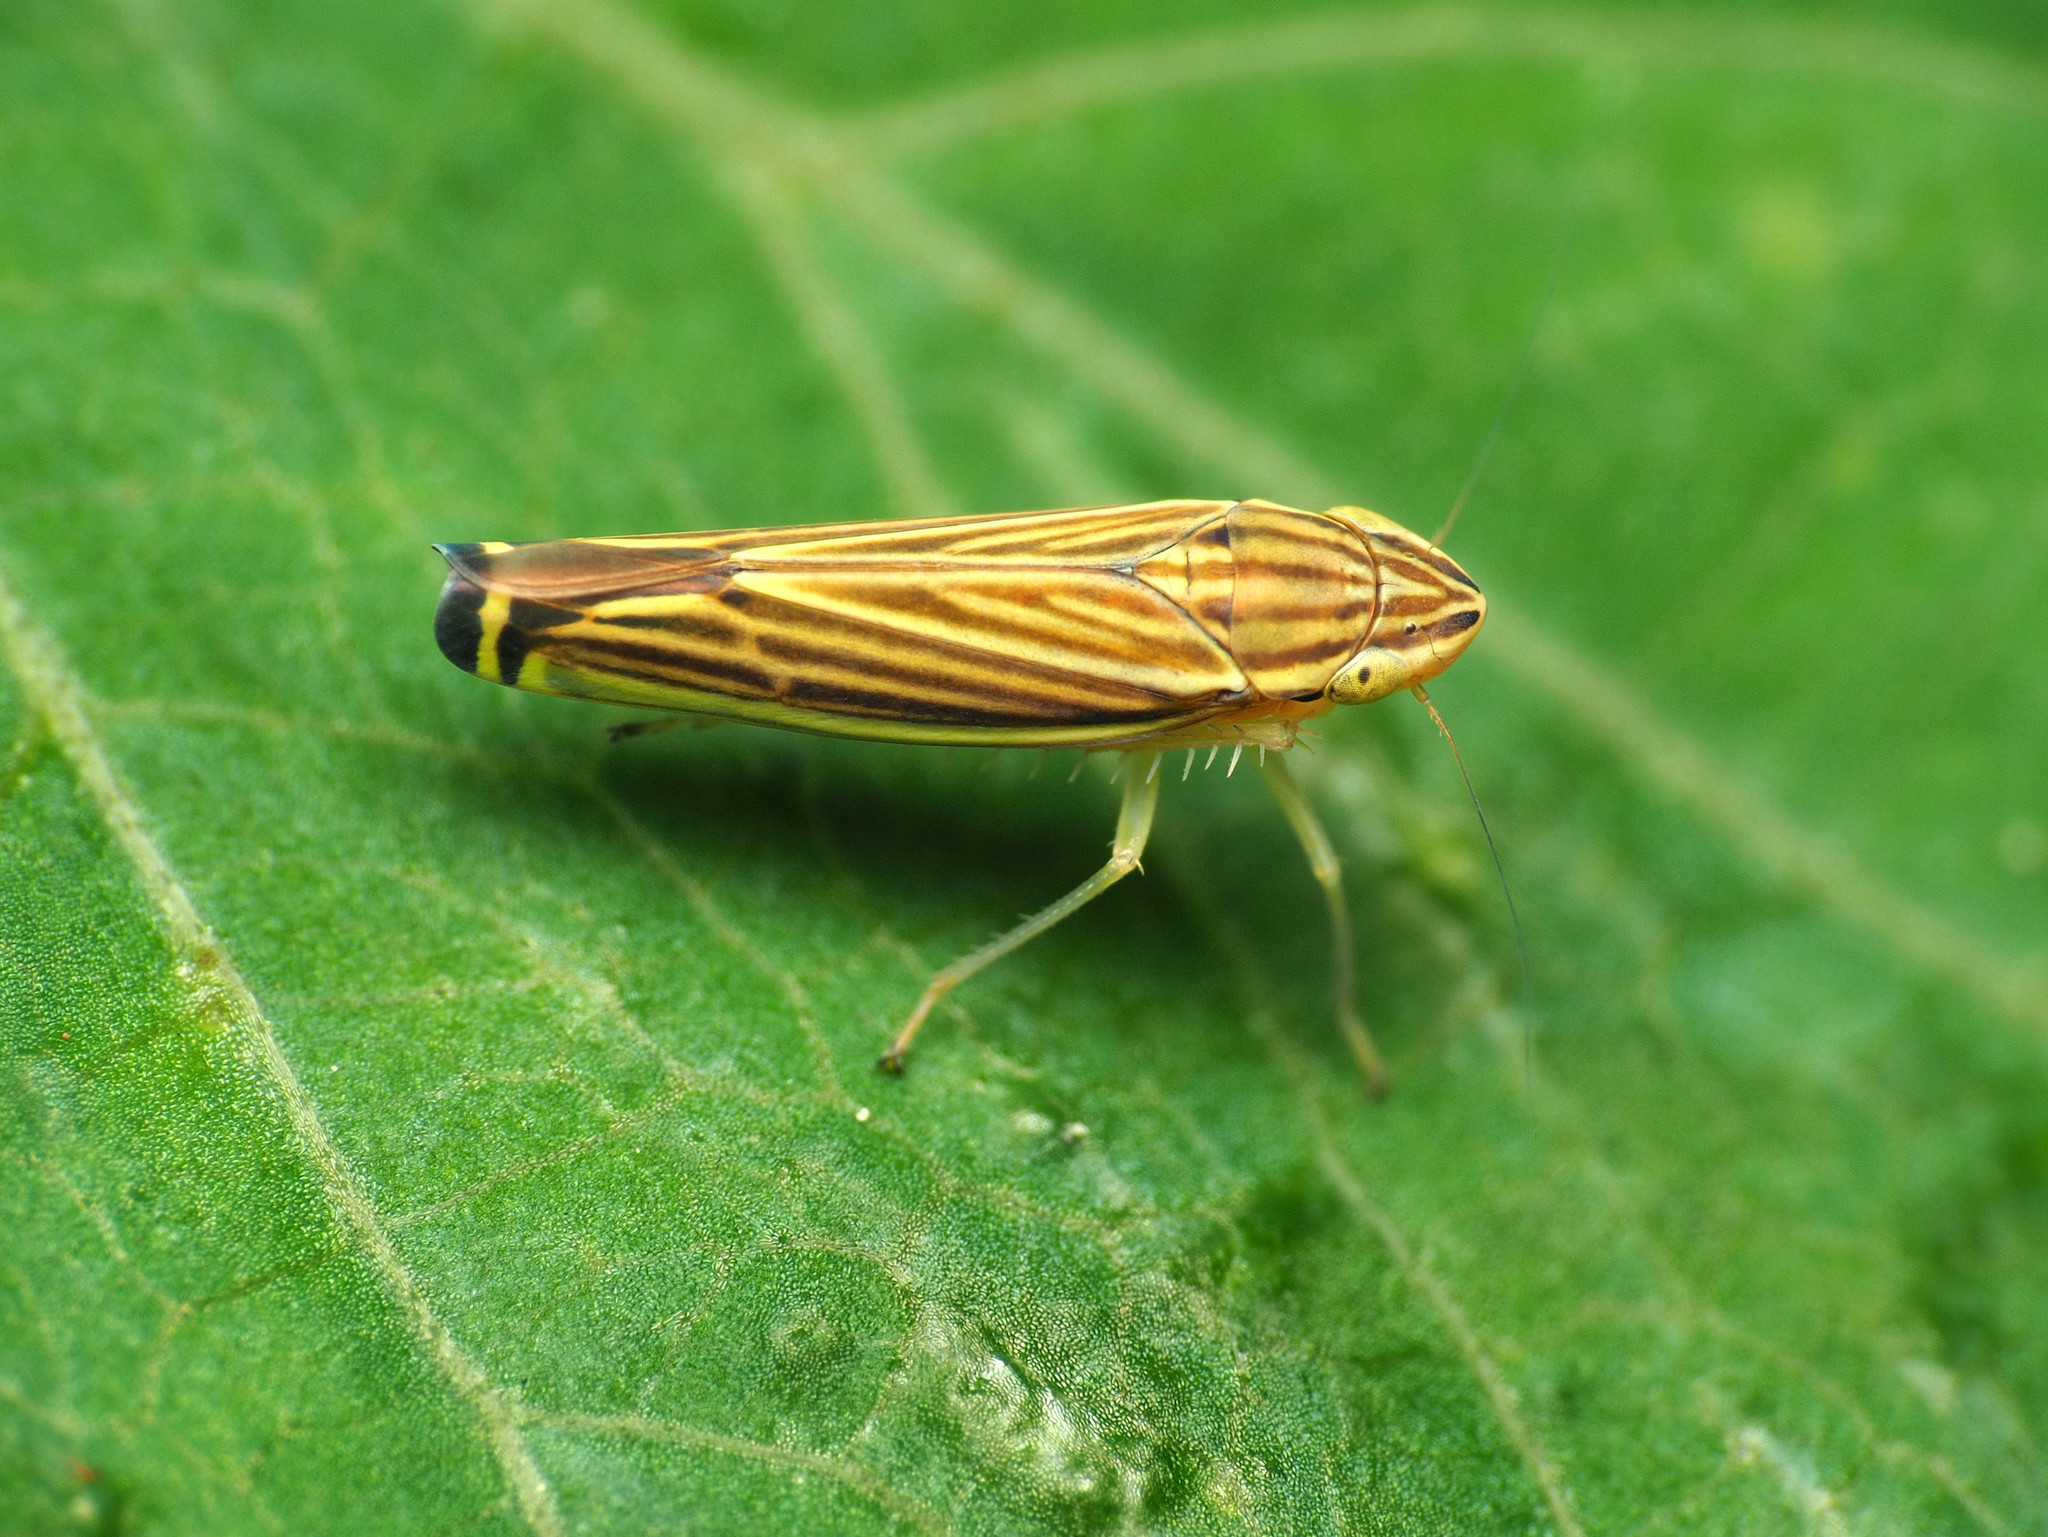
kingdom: Animalia
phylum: Arthropoda
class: Insecta
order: Hemiptera
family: Cicadellidae
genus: Sibovia
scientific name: Sibovia occatoria
